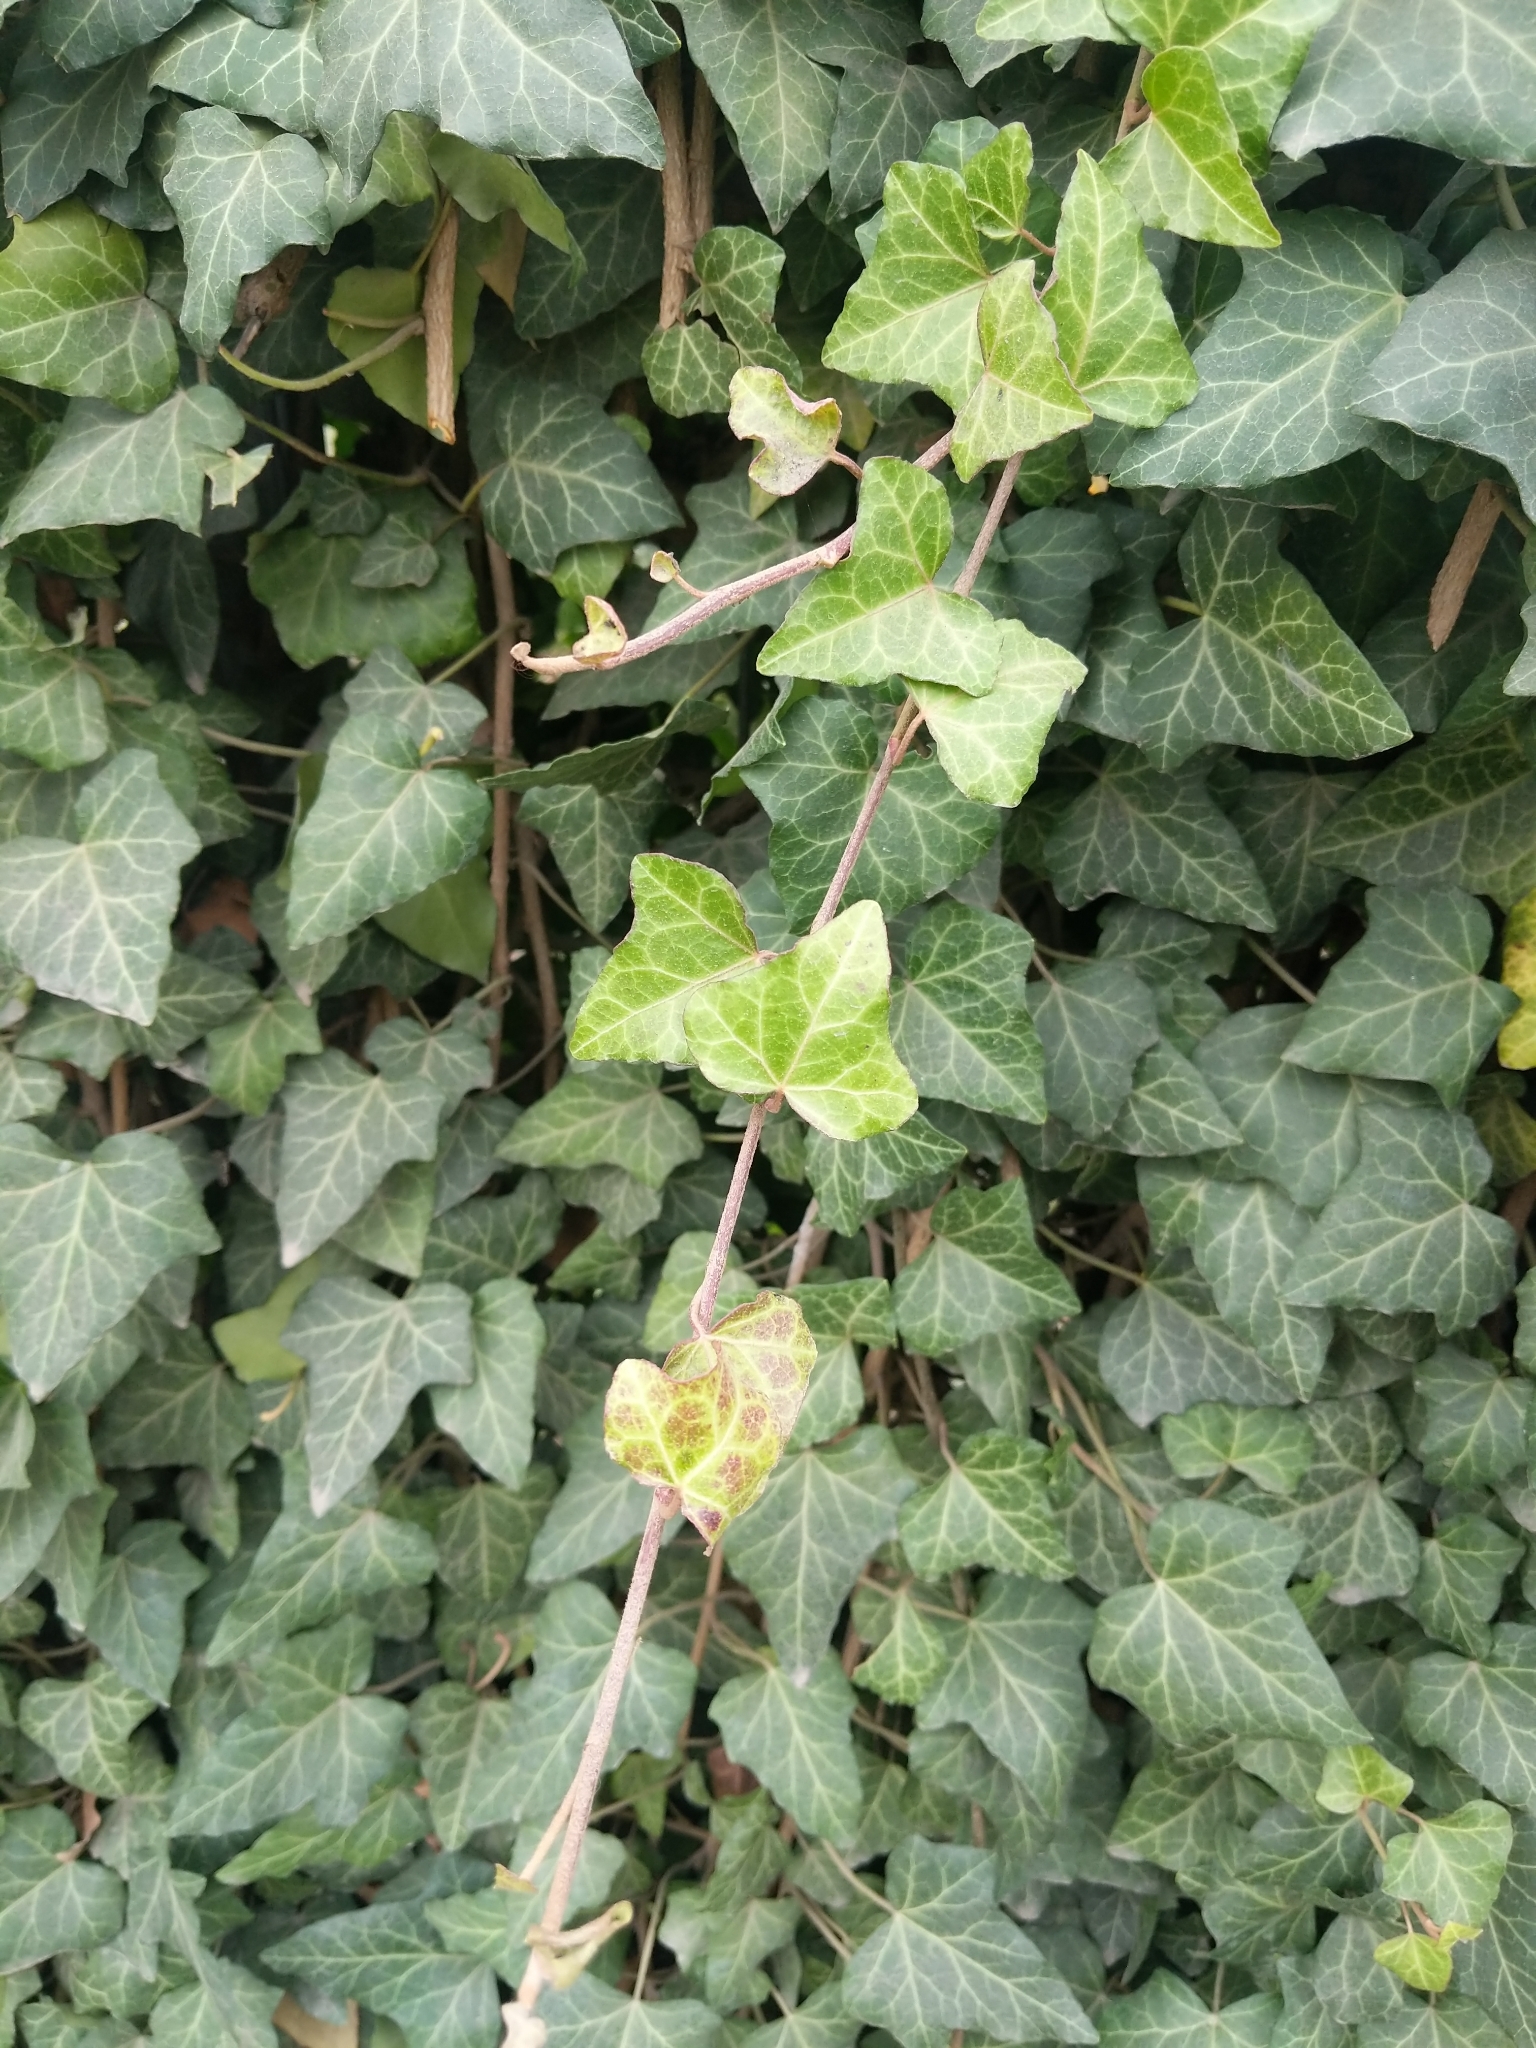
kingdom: Plantae
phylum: Tracheophyta
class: Magnoliopsida
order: Apiales
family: Araliaceae
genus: Hedera
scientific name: Hedera helix
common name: Ivy
